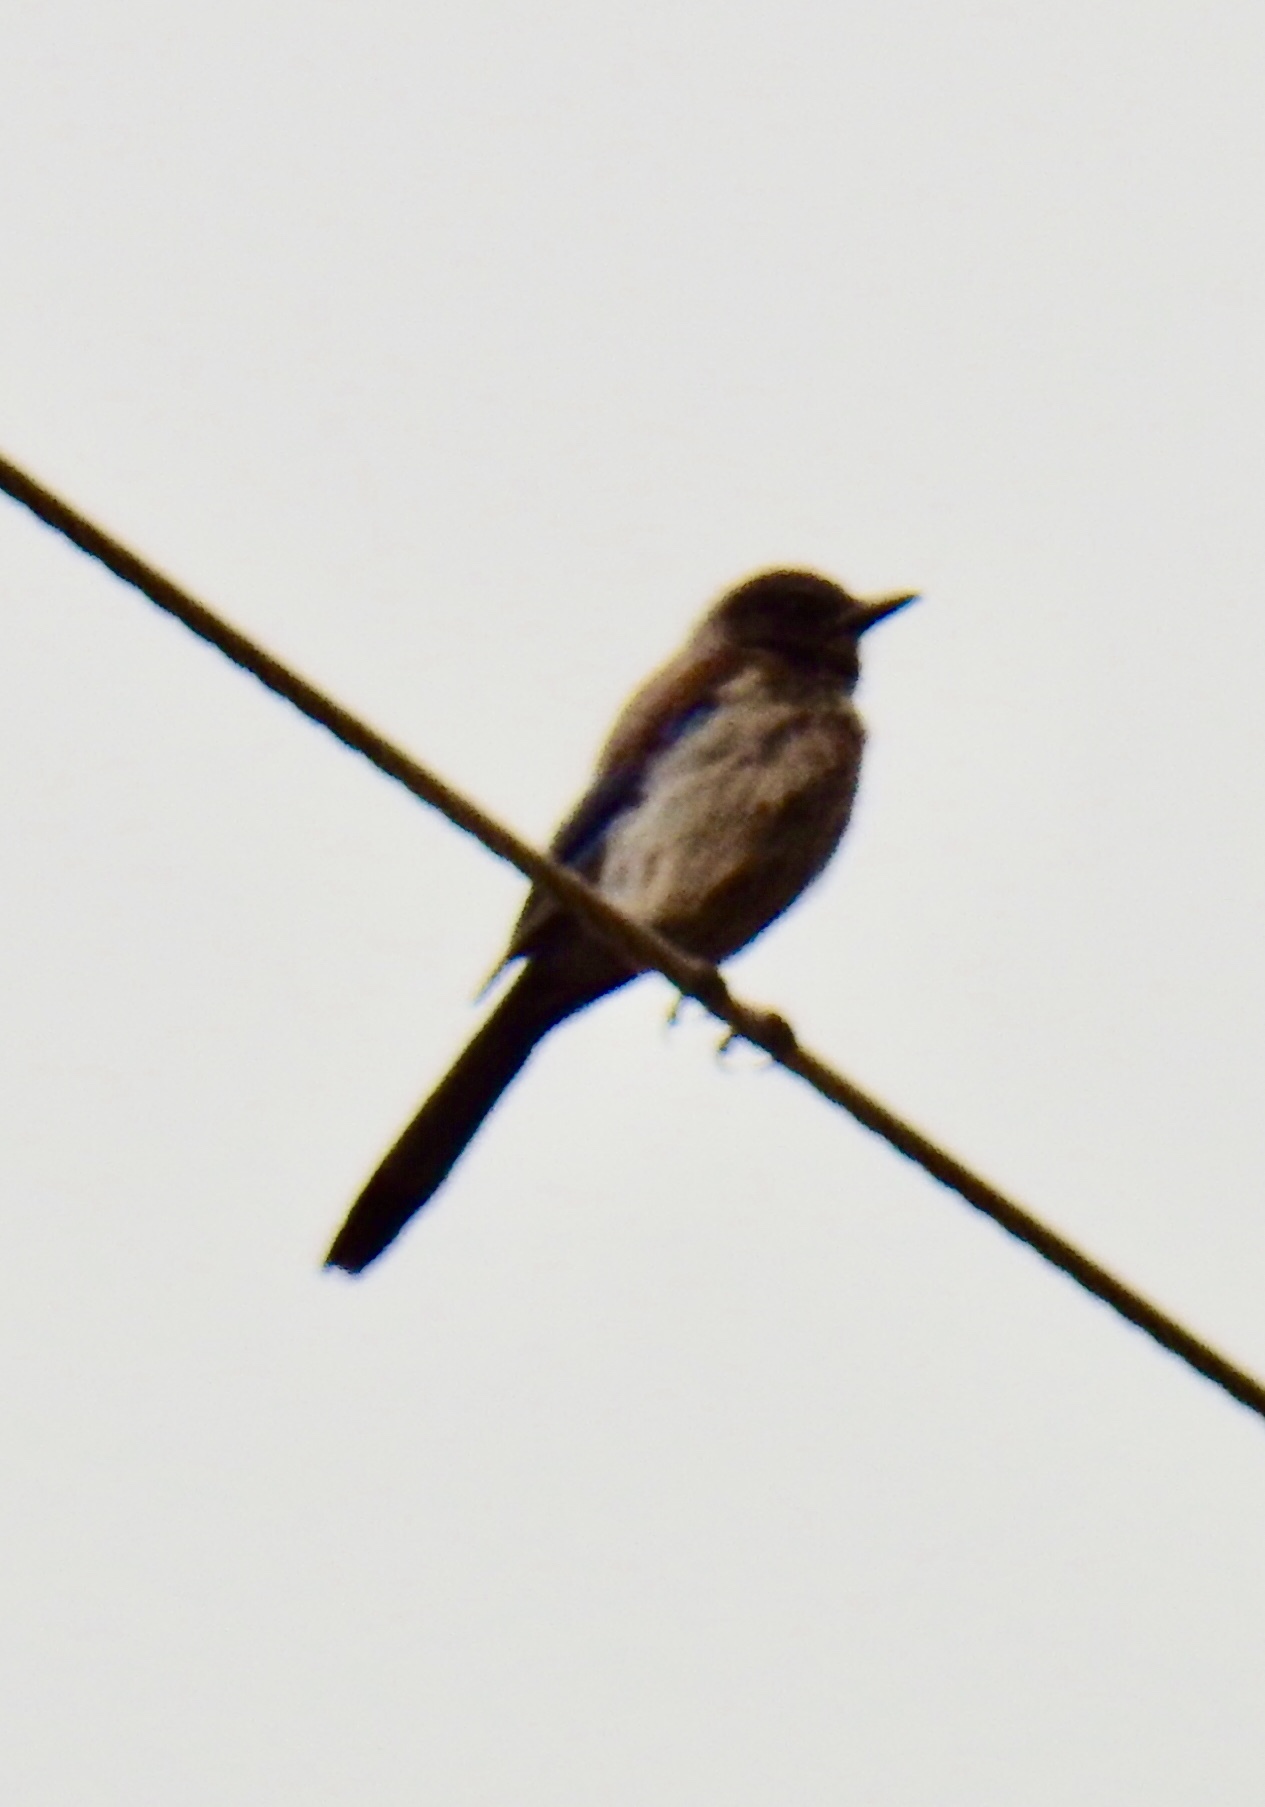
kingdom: Animalia
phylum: Chordata
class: Aves
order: Passeriformes
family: Corvidae
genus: Aphelocoma
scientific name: Aphelocoma woodhouseii
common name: Woodhouse's scrub-jay
